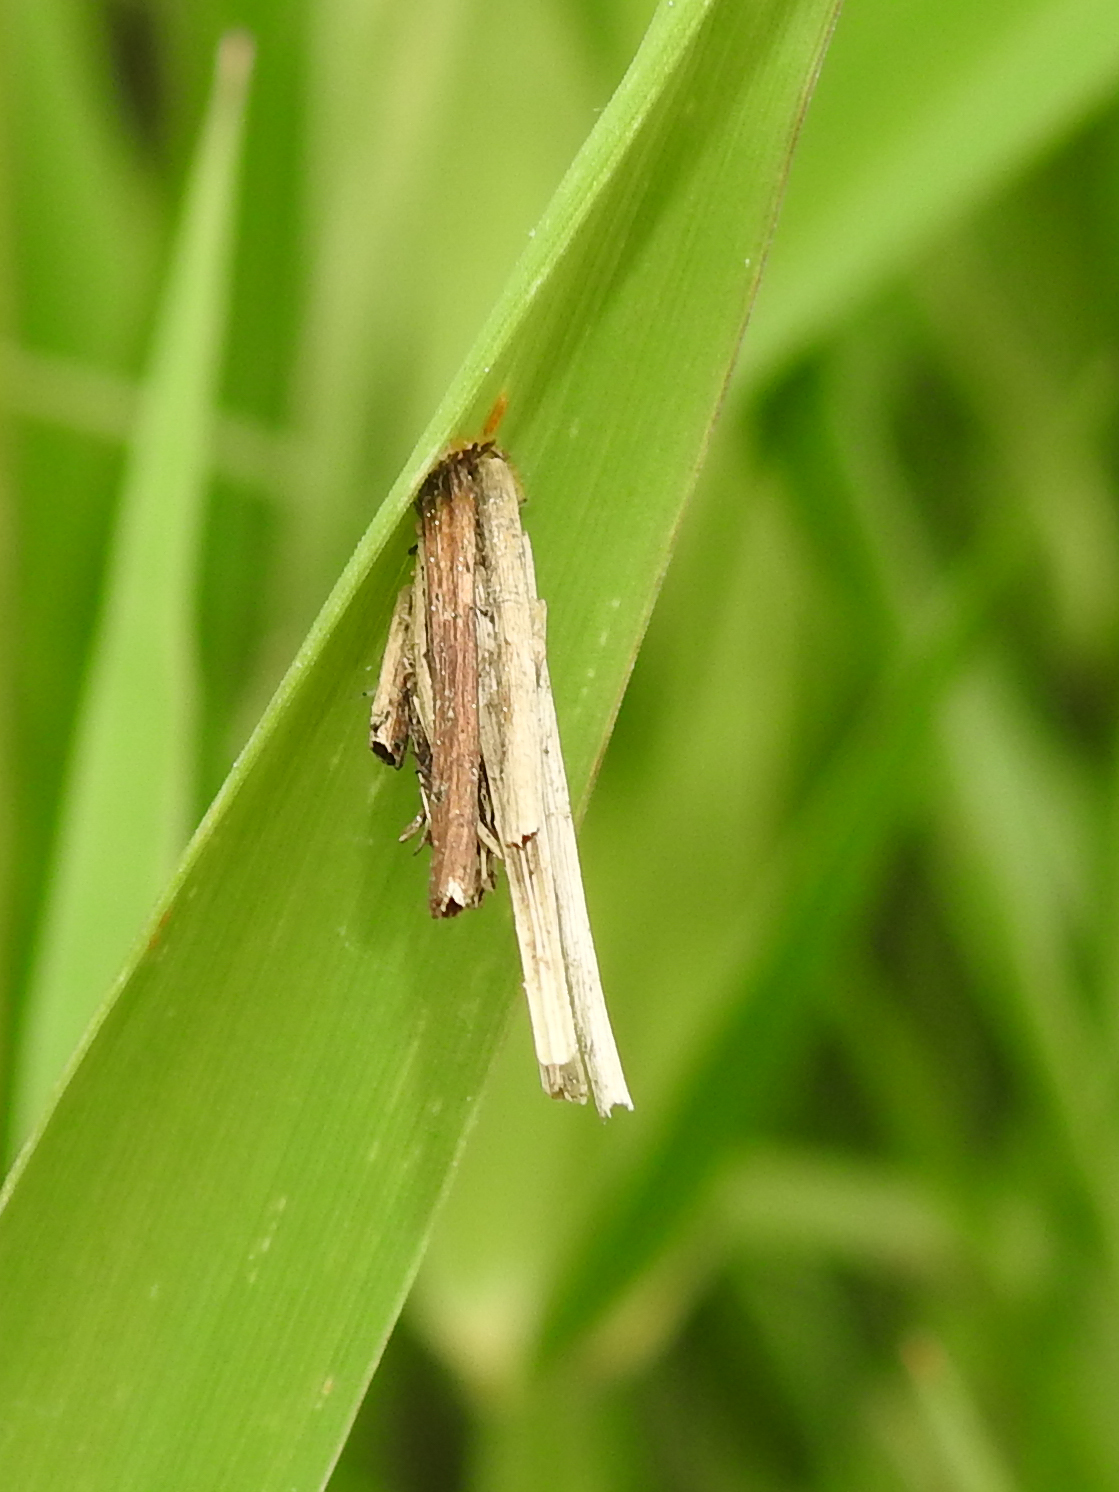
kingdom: Animalia
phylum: Arthropoda
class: Insecta
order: Lepidoptera
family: Psychidae
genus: Psyche
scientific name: Psyche casta
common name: Common sweep
